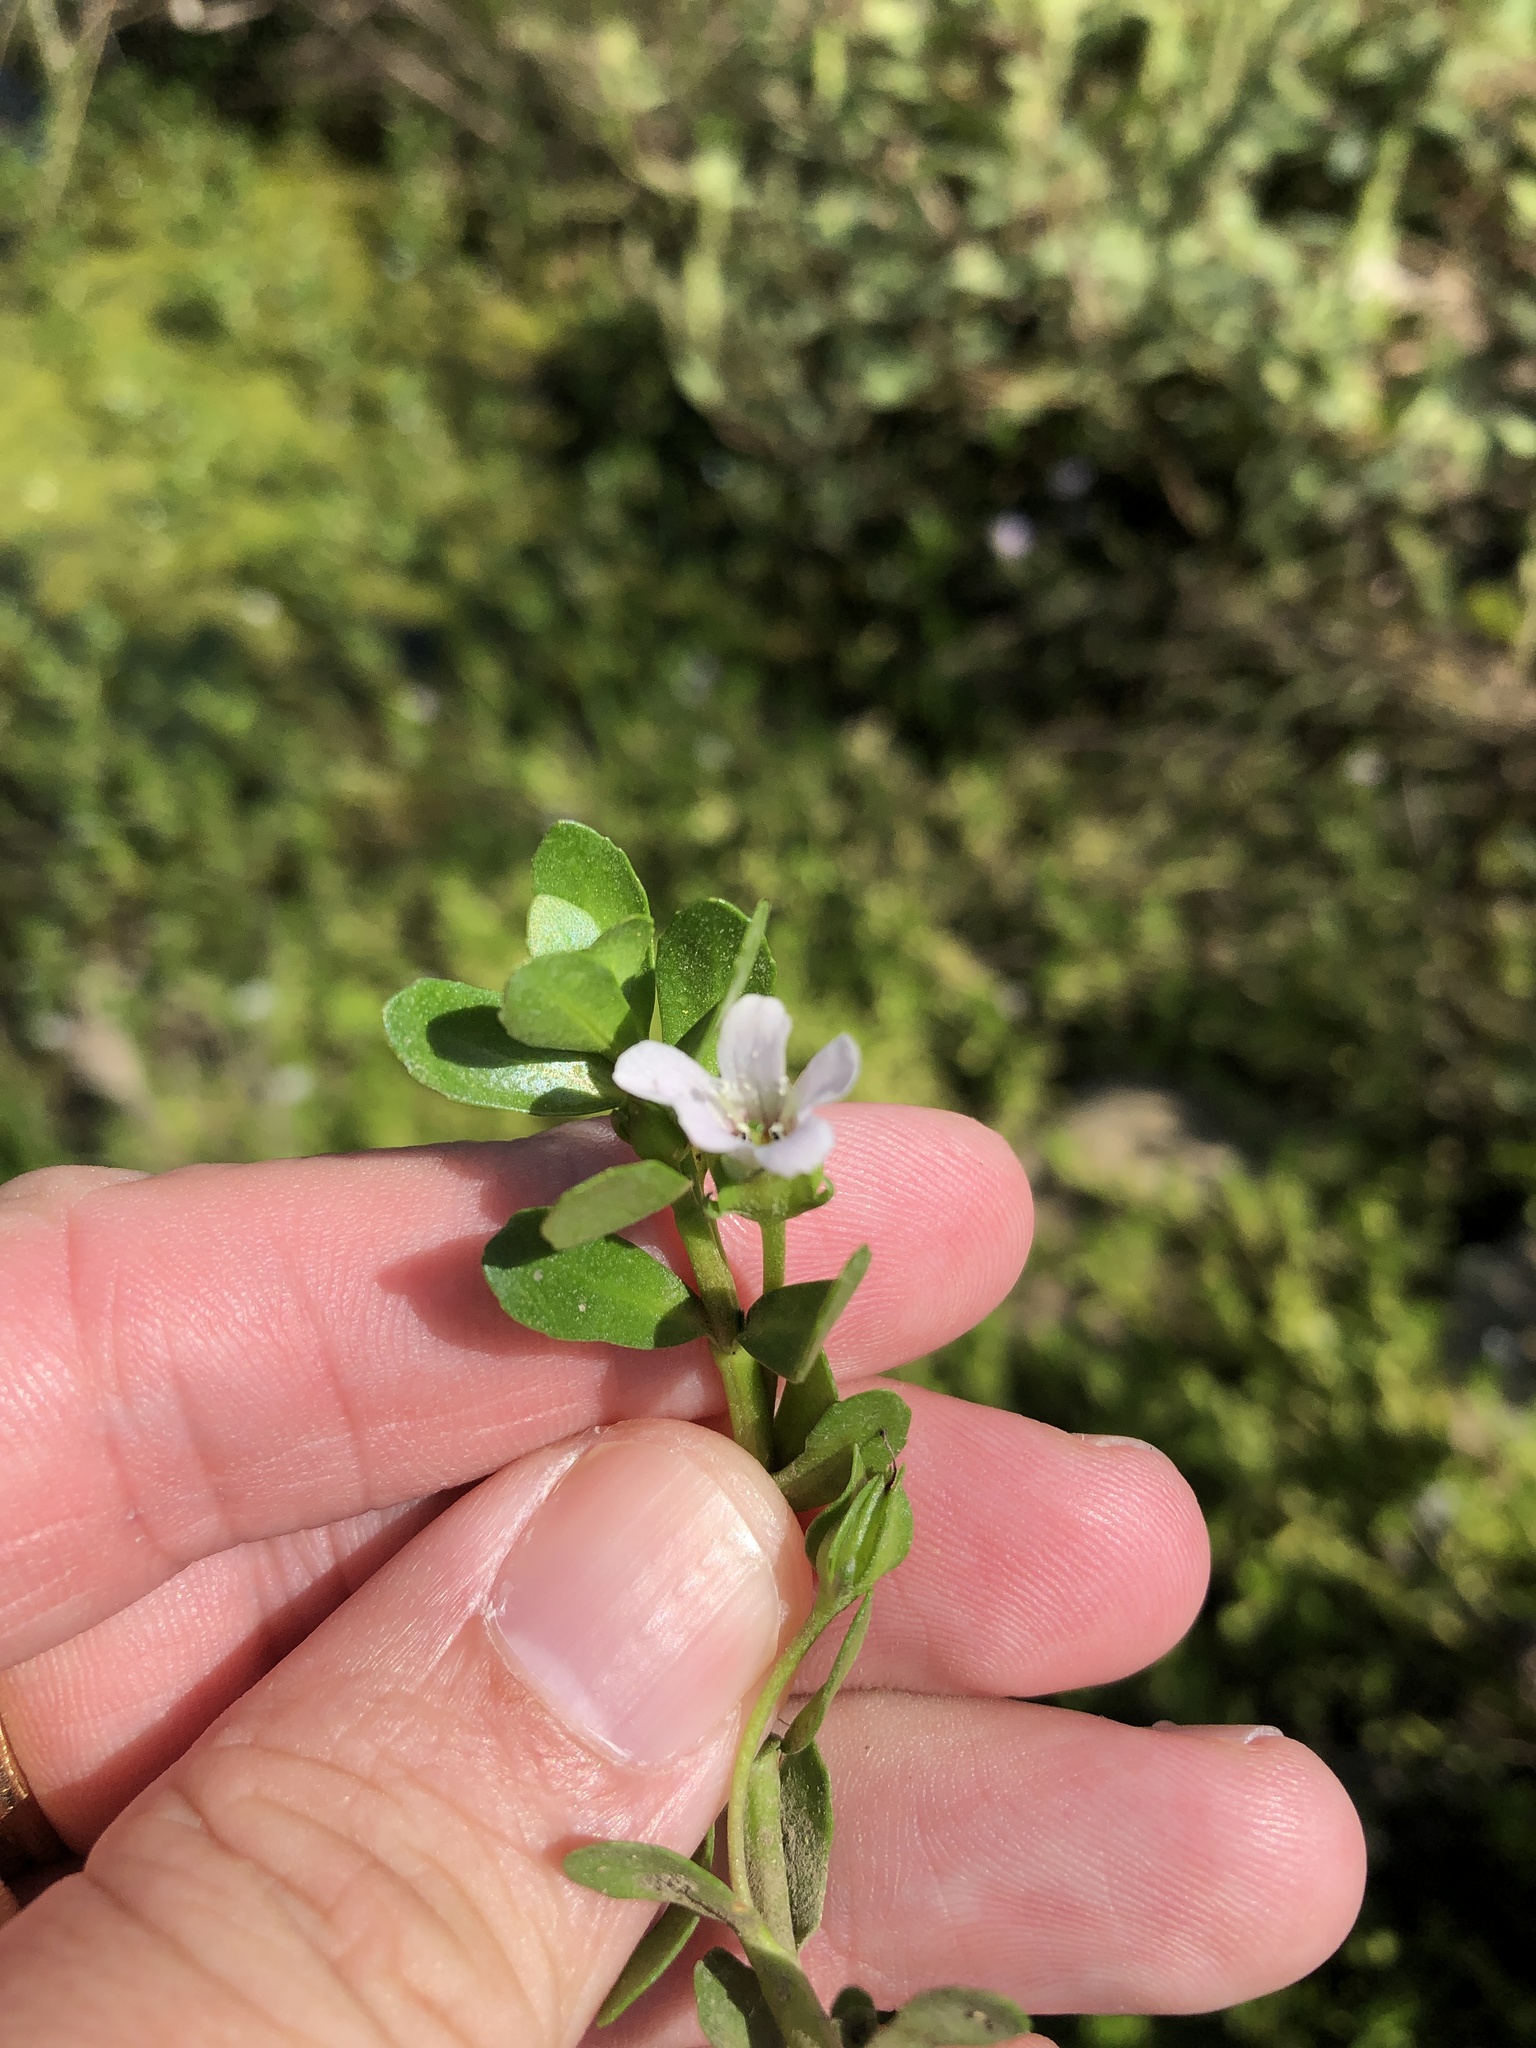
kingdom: Plantae
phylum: Tracheophyta
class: Magnoliopsida
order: Lamiales
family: Plantaginaceae
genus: Bacopa
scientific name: Bacopa monnieri
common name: Indian-pennywort
